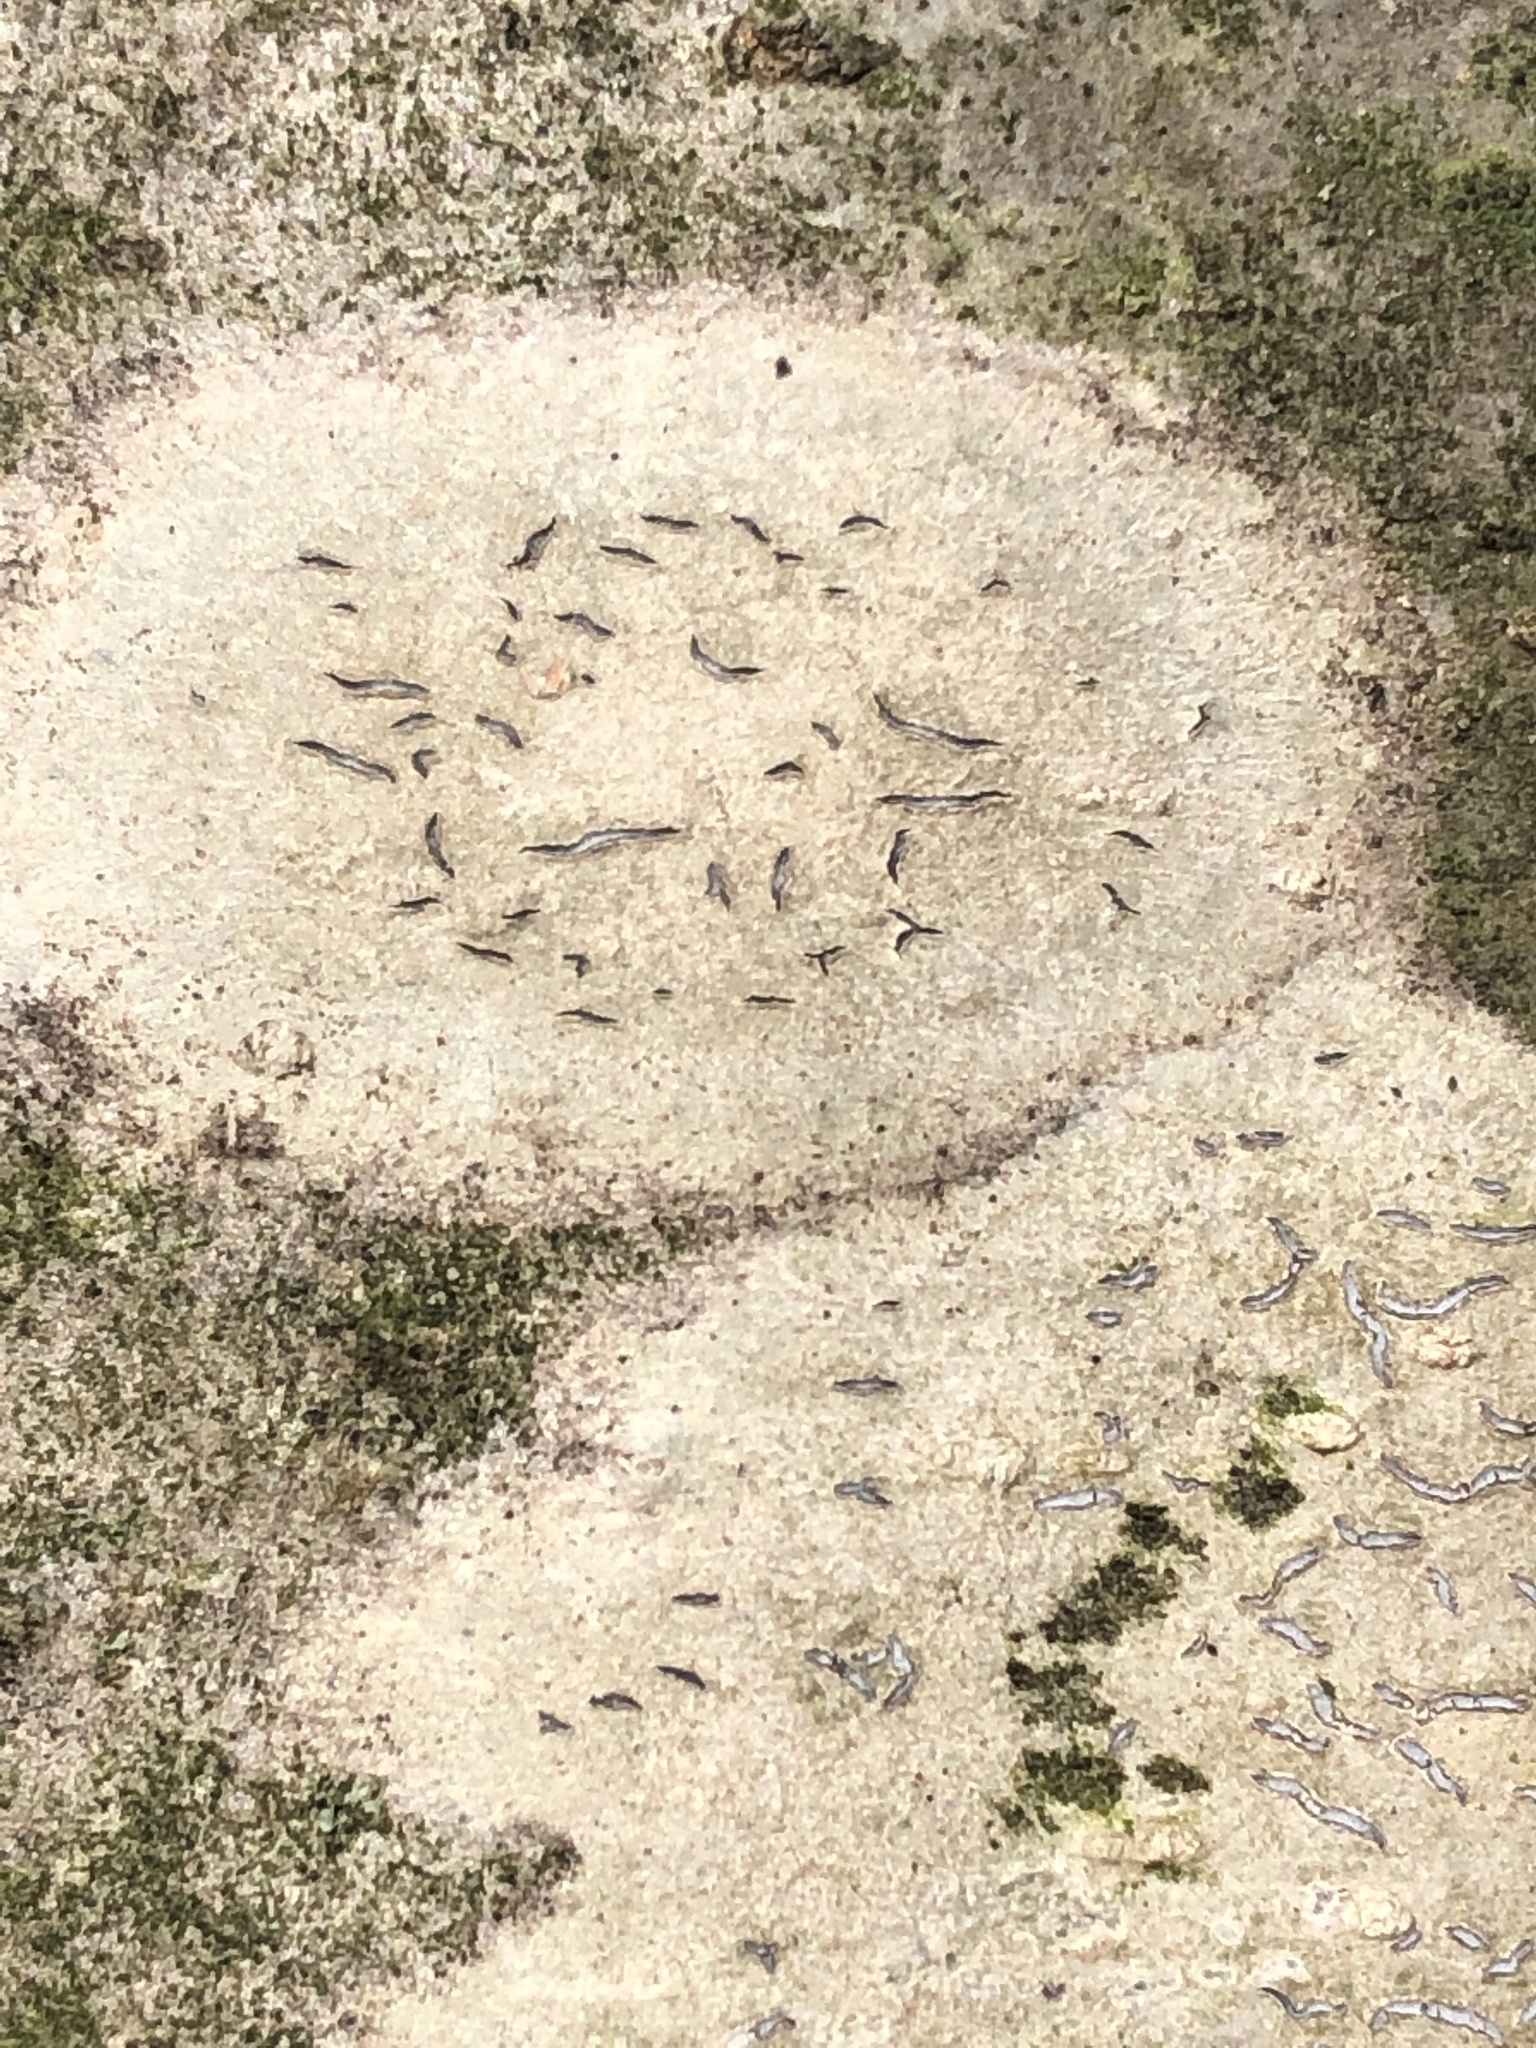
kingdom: Fungi
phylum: Ascomycota
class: Lecanoromycetes
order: Ostropales
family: Graphidaceae
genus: Graphis
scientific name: Graphis scripta
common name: Script lichen
